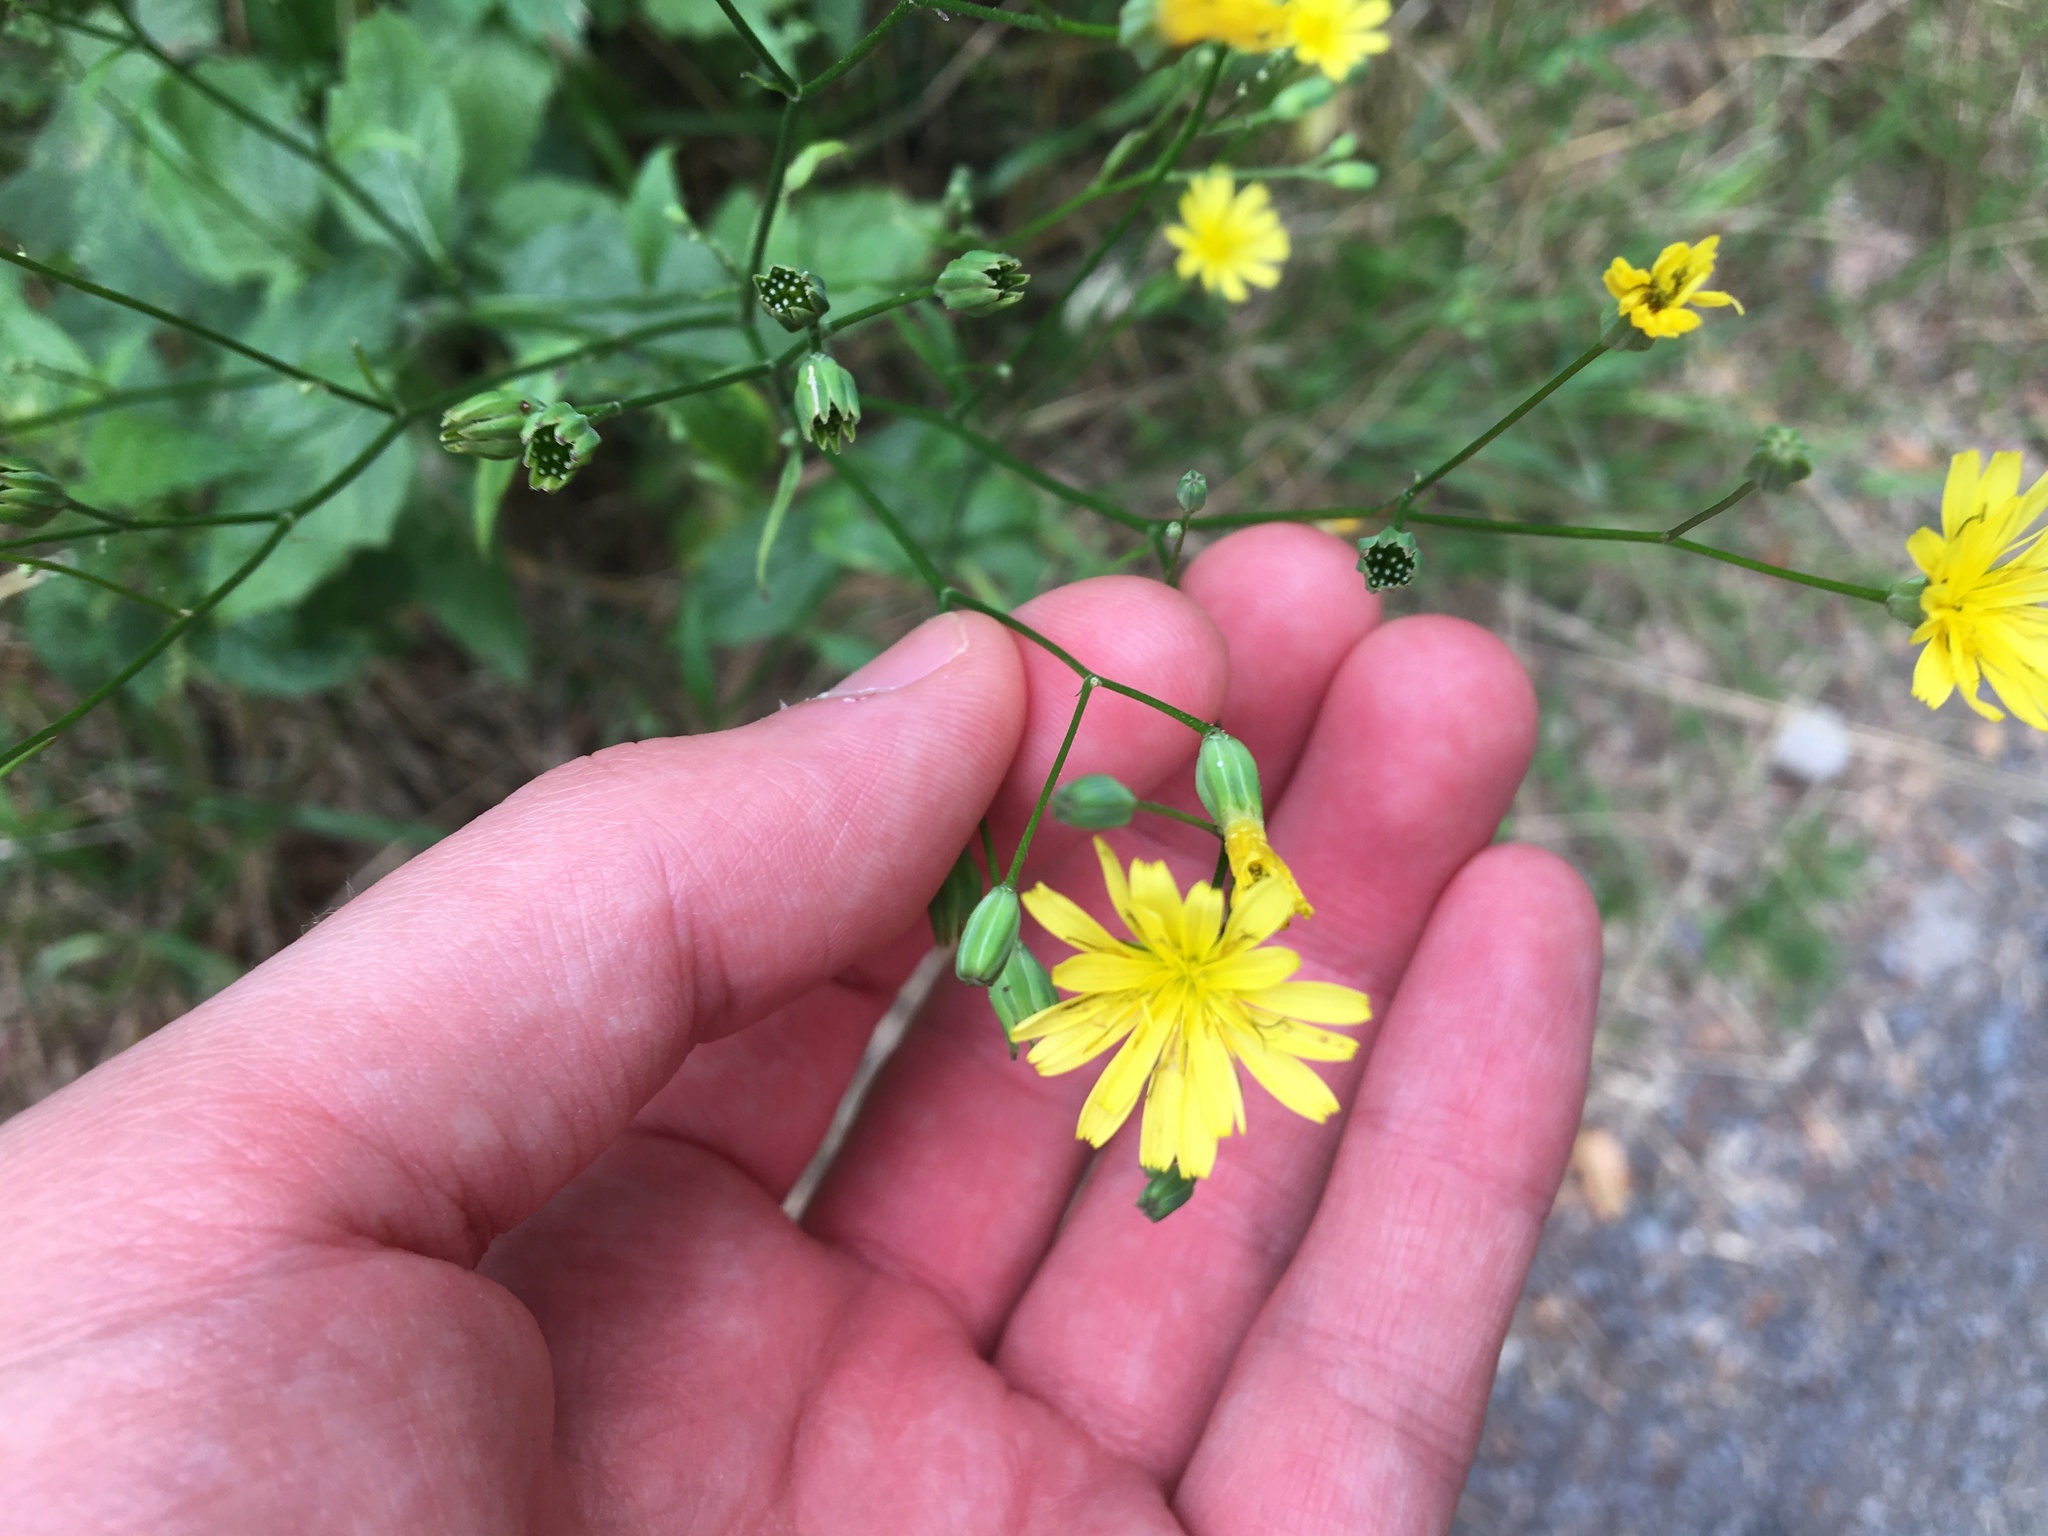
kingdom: Plantae
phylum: Tracheophyta
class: Magnoliopsida
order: Asterales
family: Asteraceae
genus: Lapsana
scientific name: Lapsana communis
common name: Nipplewort
